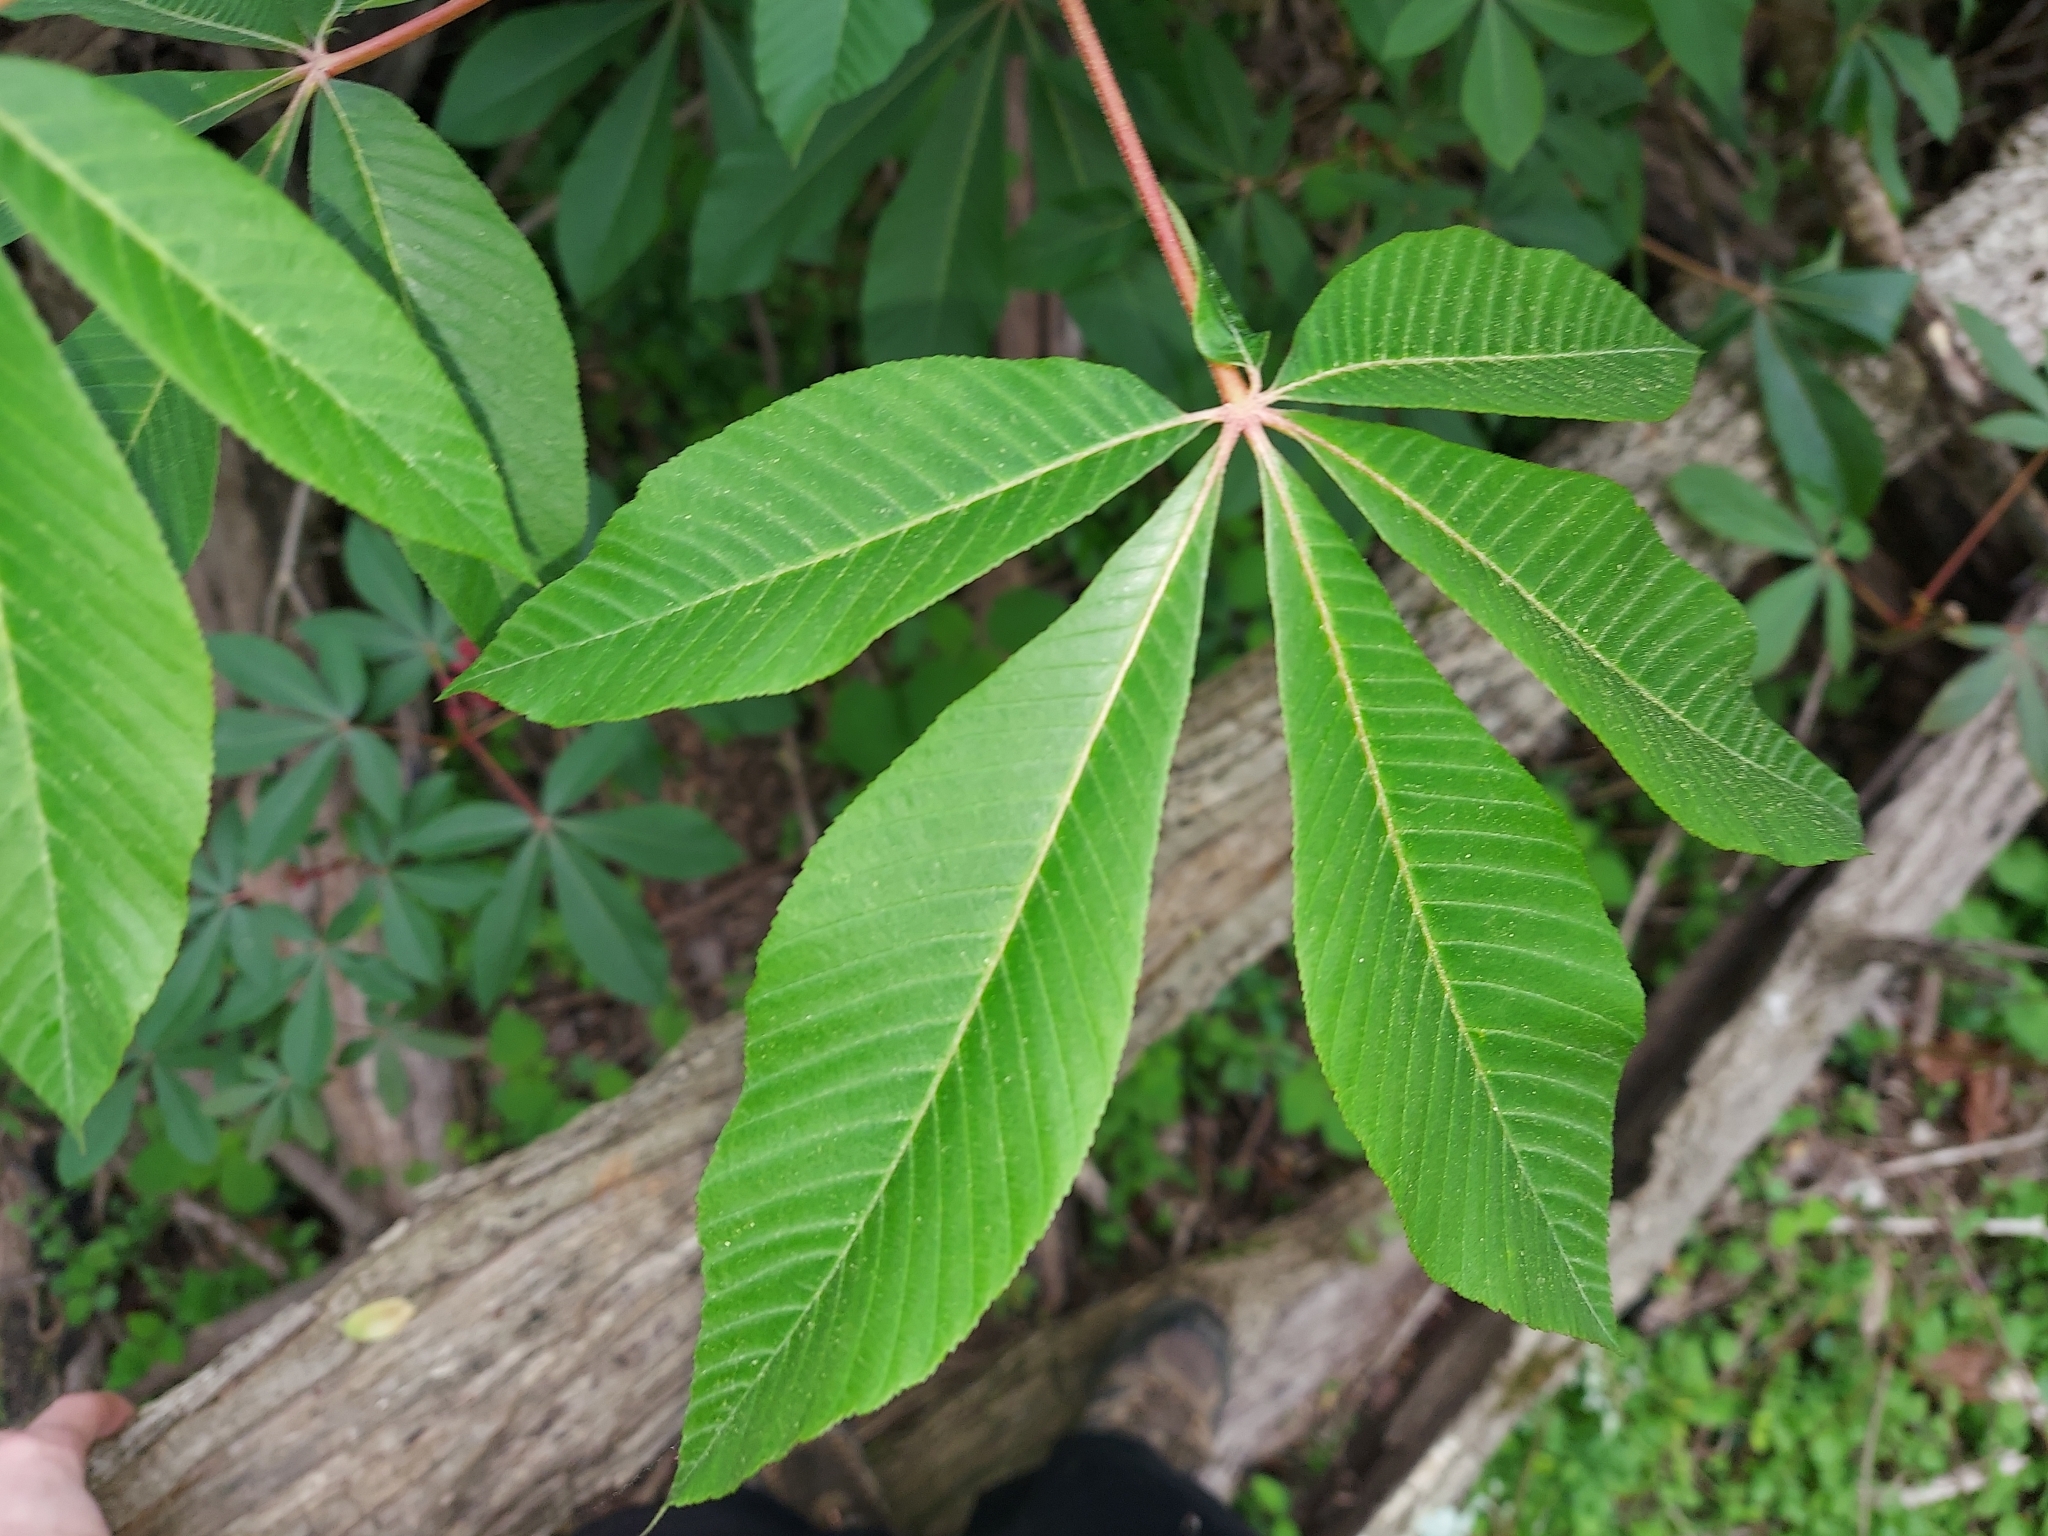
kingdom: Plantae
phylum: Tracheophyta
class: Magnoliopsida
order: Sapindales
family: Sapindaceae
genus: Aesculus
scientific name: Aesculus pavia
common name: Red buckeye
